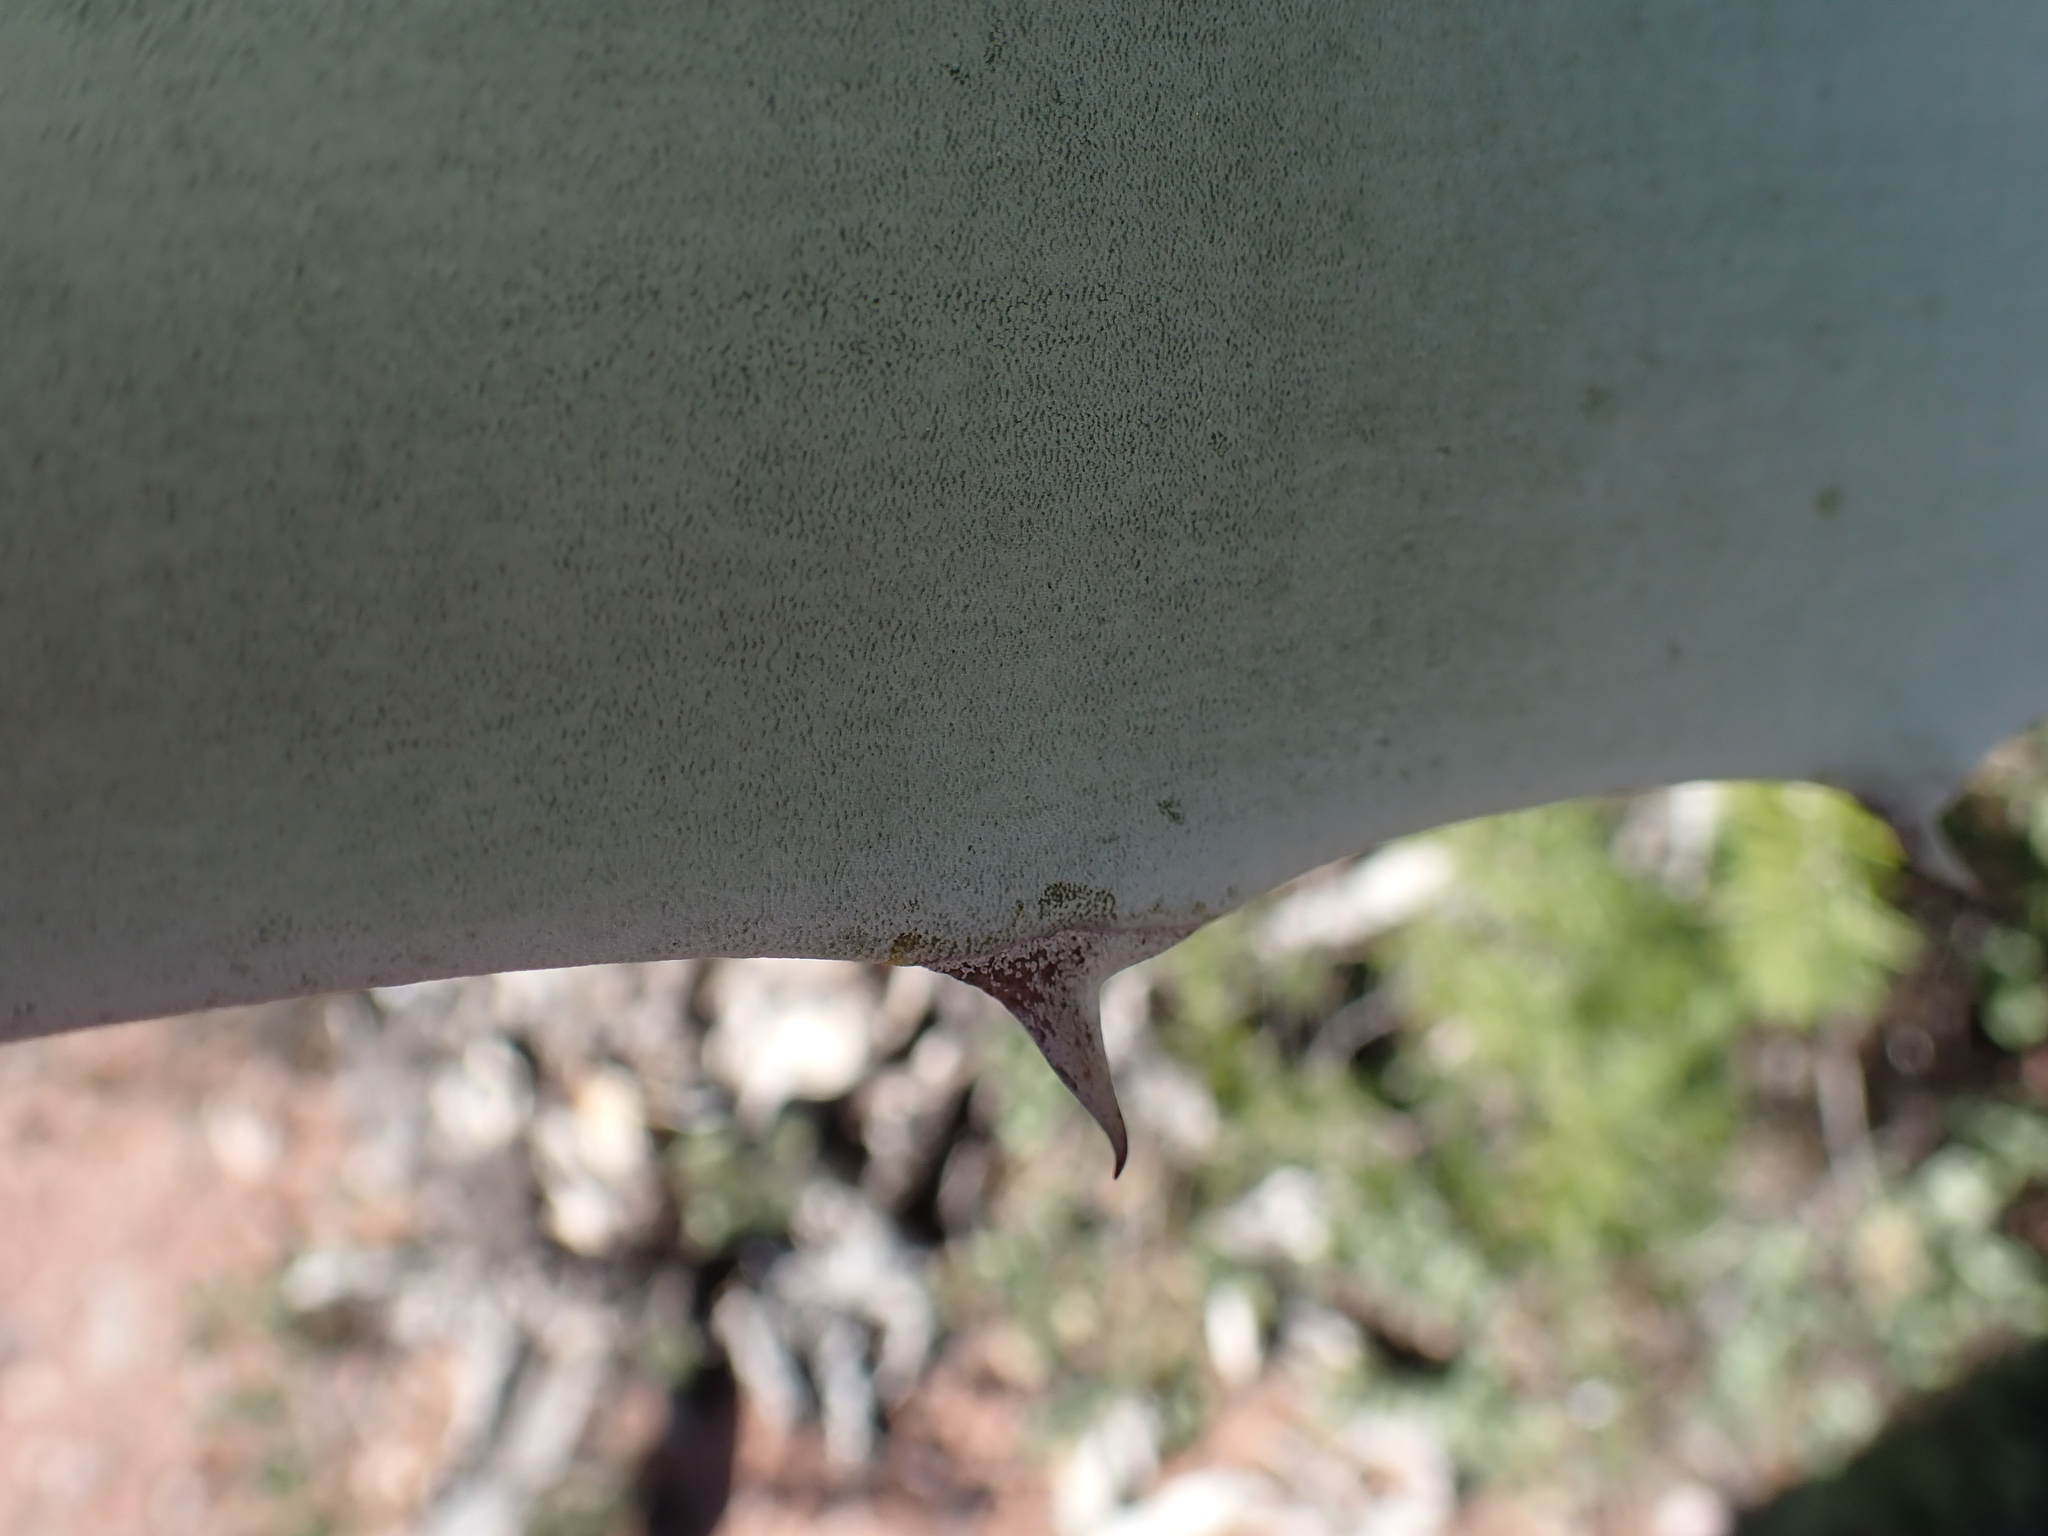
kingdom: Plantae
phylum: Tracheophyta
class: Liliopsida
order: Asparagales
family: Asparagaceae
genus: Agave
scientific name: Agave americana
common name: Centuryplant
